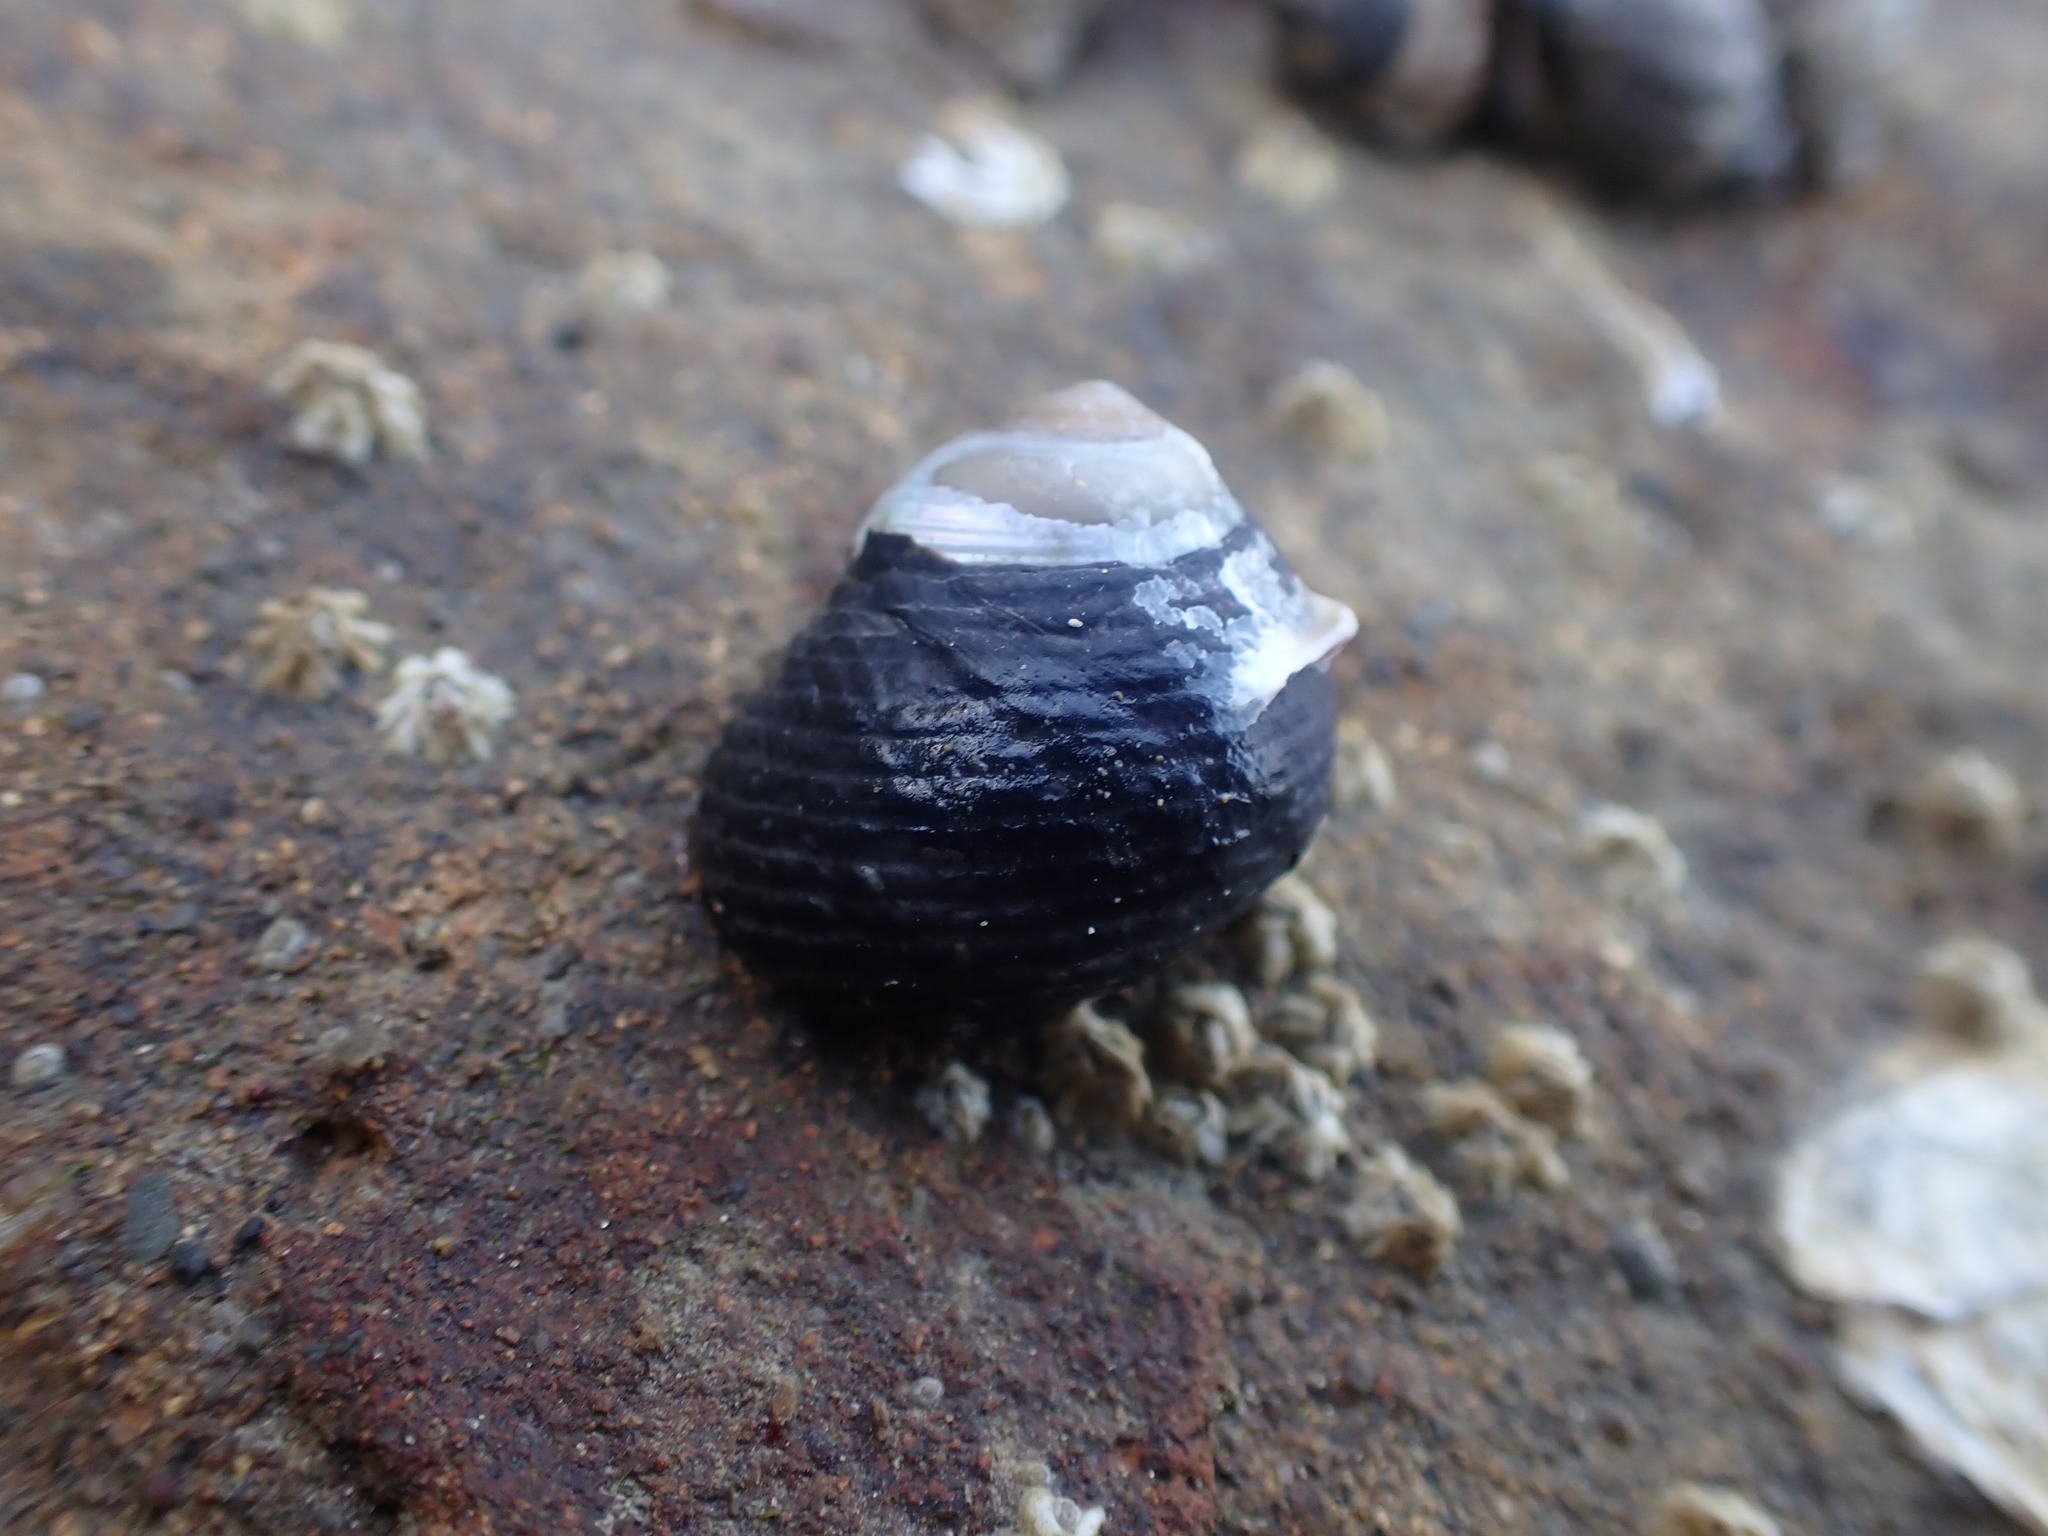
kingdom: Animalia
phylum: Mollusca
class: Gastropoda
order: Trochida
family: Trochidae
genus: Diloma
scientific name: Diloma zelandicum
